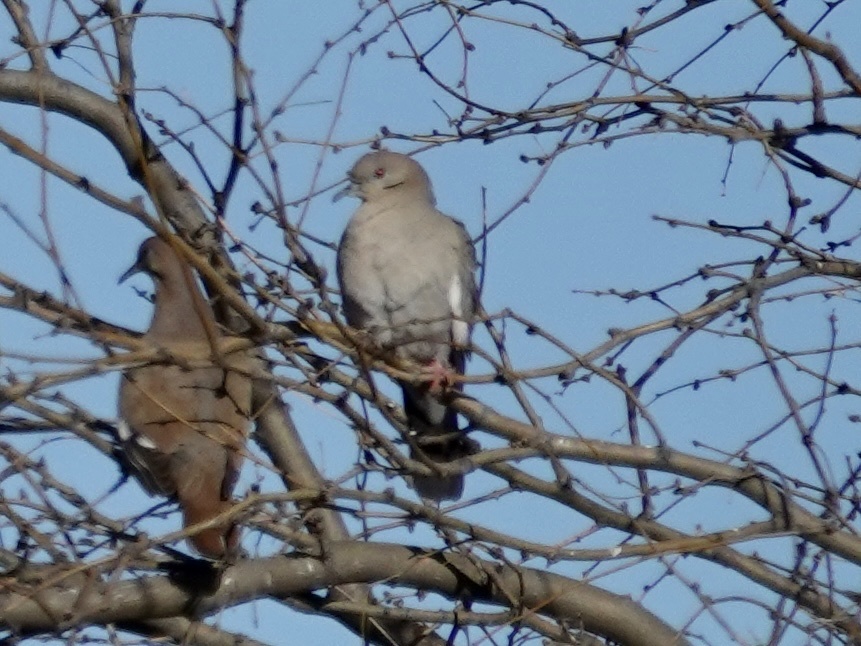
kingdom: Animalia
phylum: Chordata
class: Aves
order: Columbiformes
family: Columbidae
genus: Zenaida
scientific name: Zenaida asiatica
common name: White-winged dove
